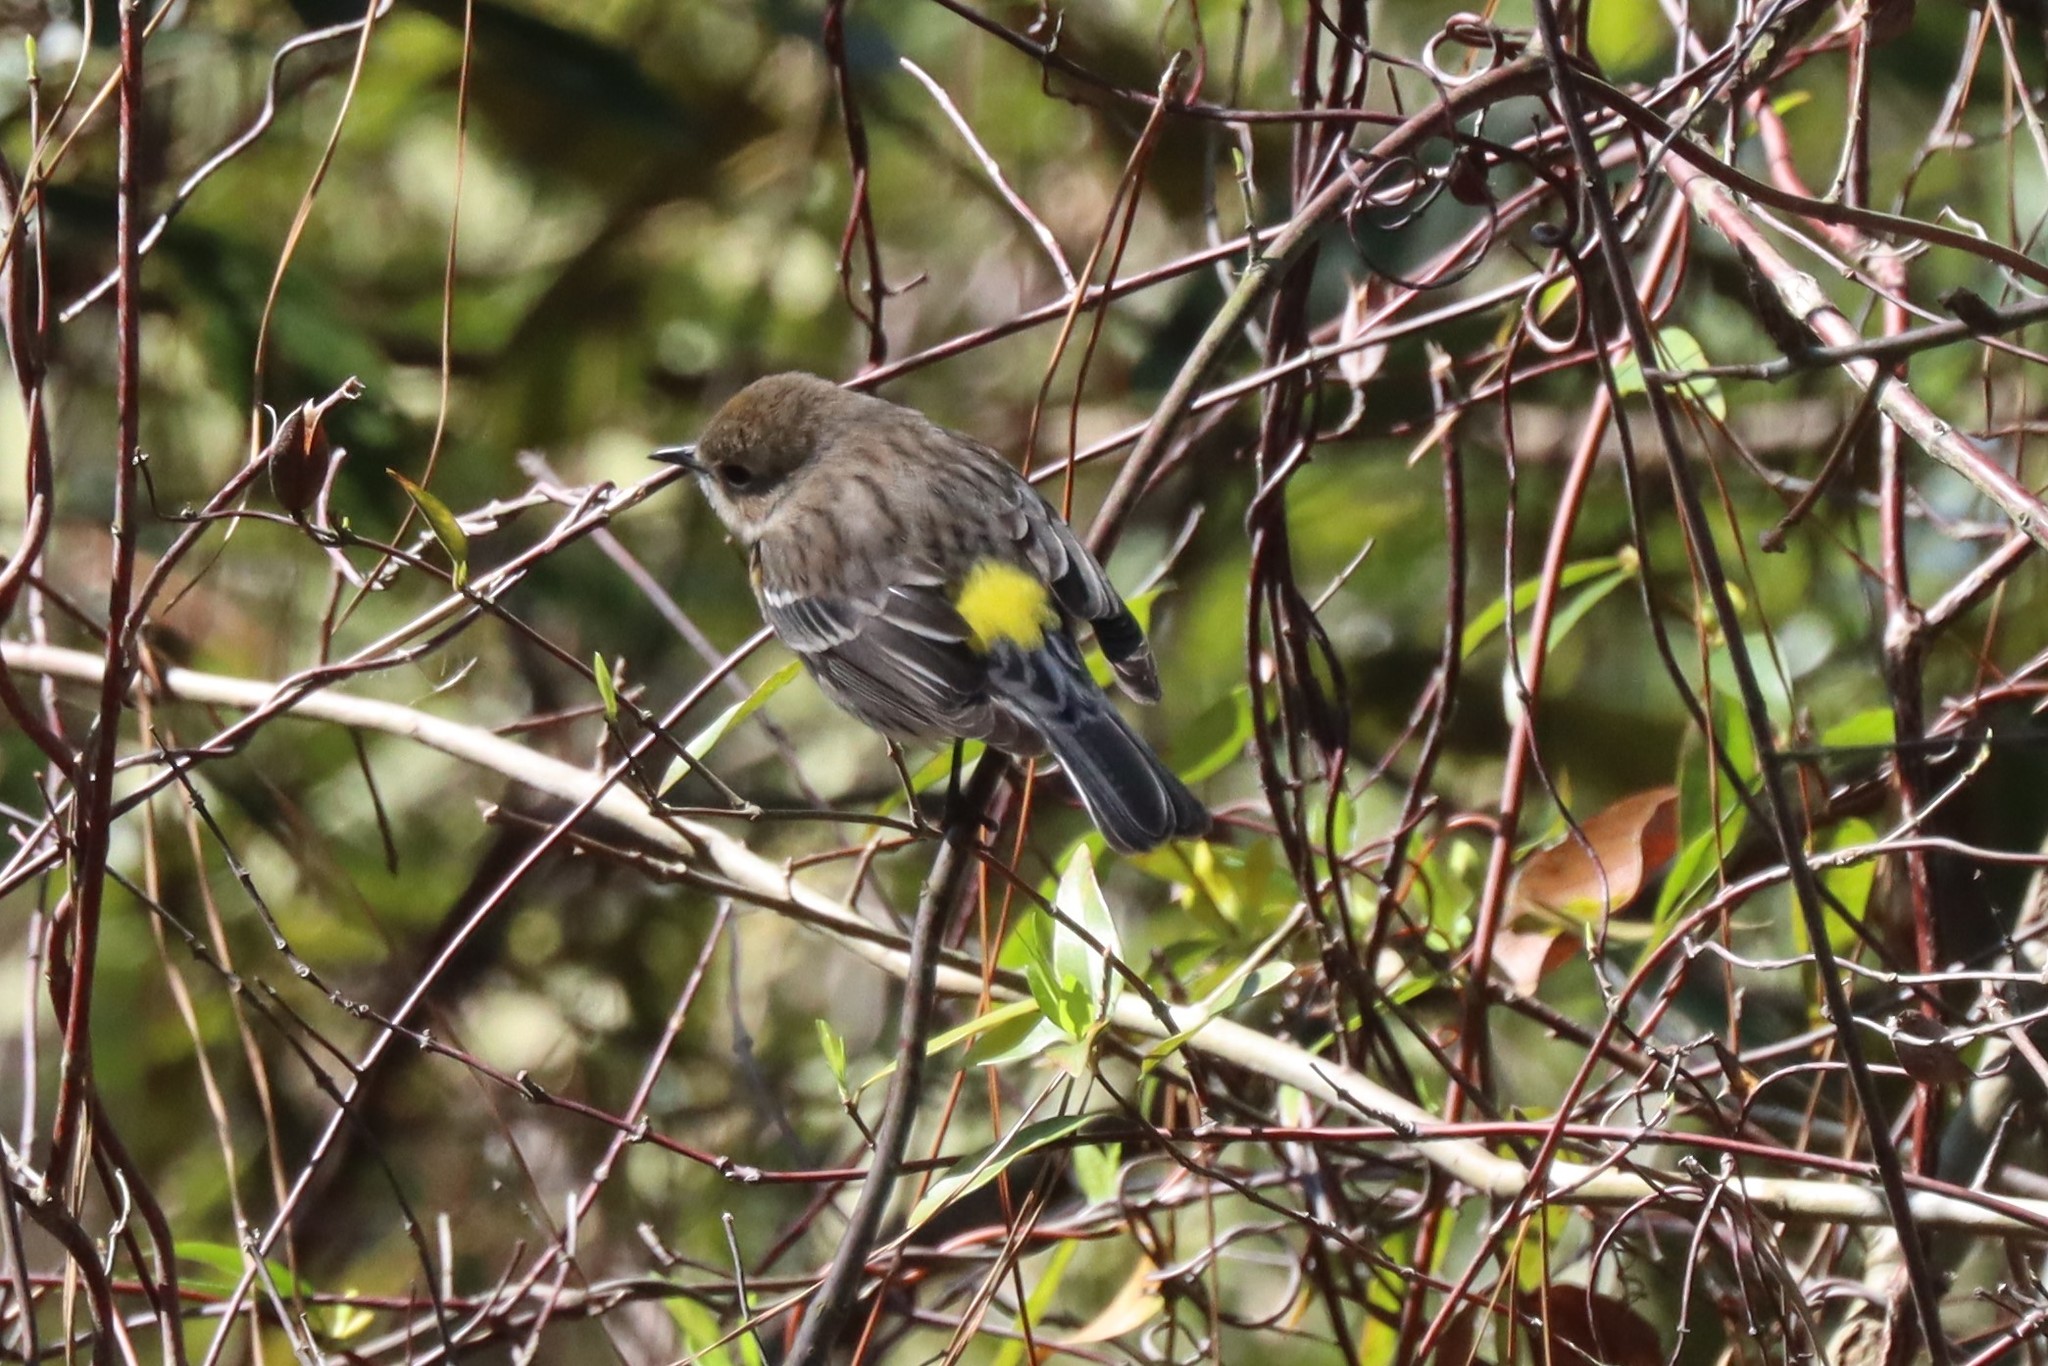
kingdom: Animalia
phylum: Chordata
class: Aves
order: Passeriformes
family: Parulidae
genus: Setophaga
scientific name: Setophaga coronata
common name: Myrtle warbler
